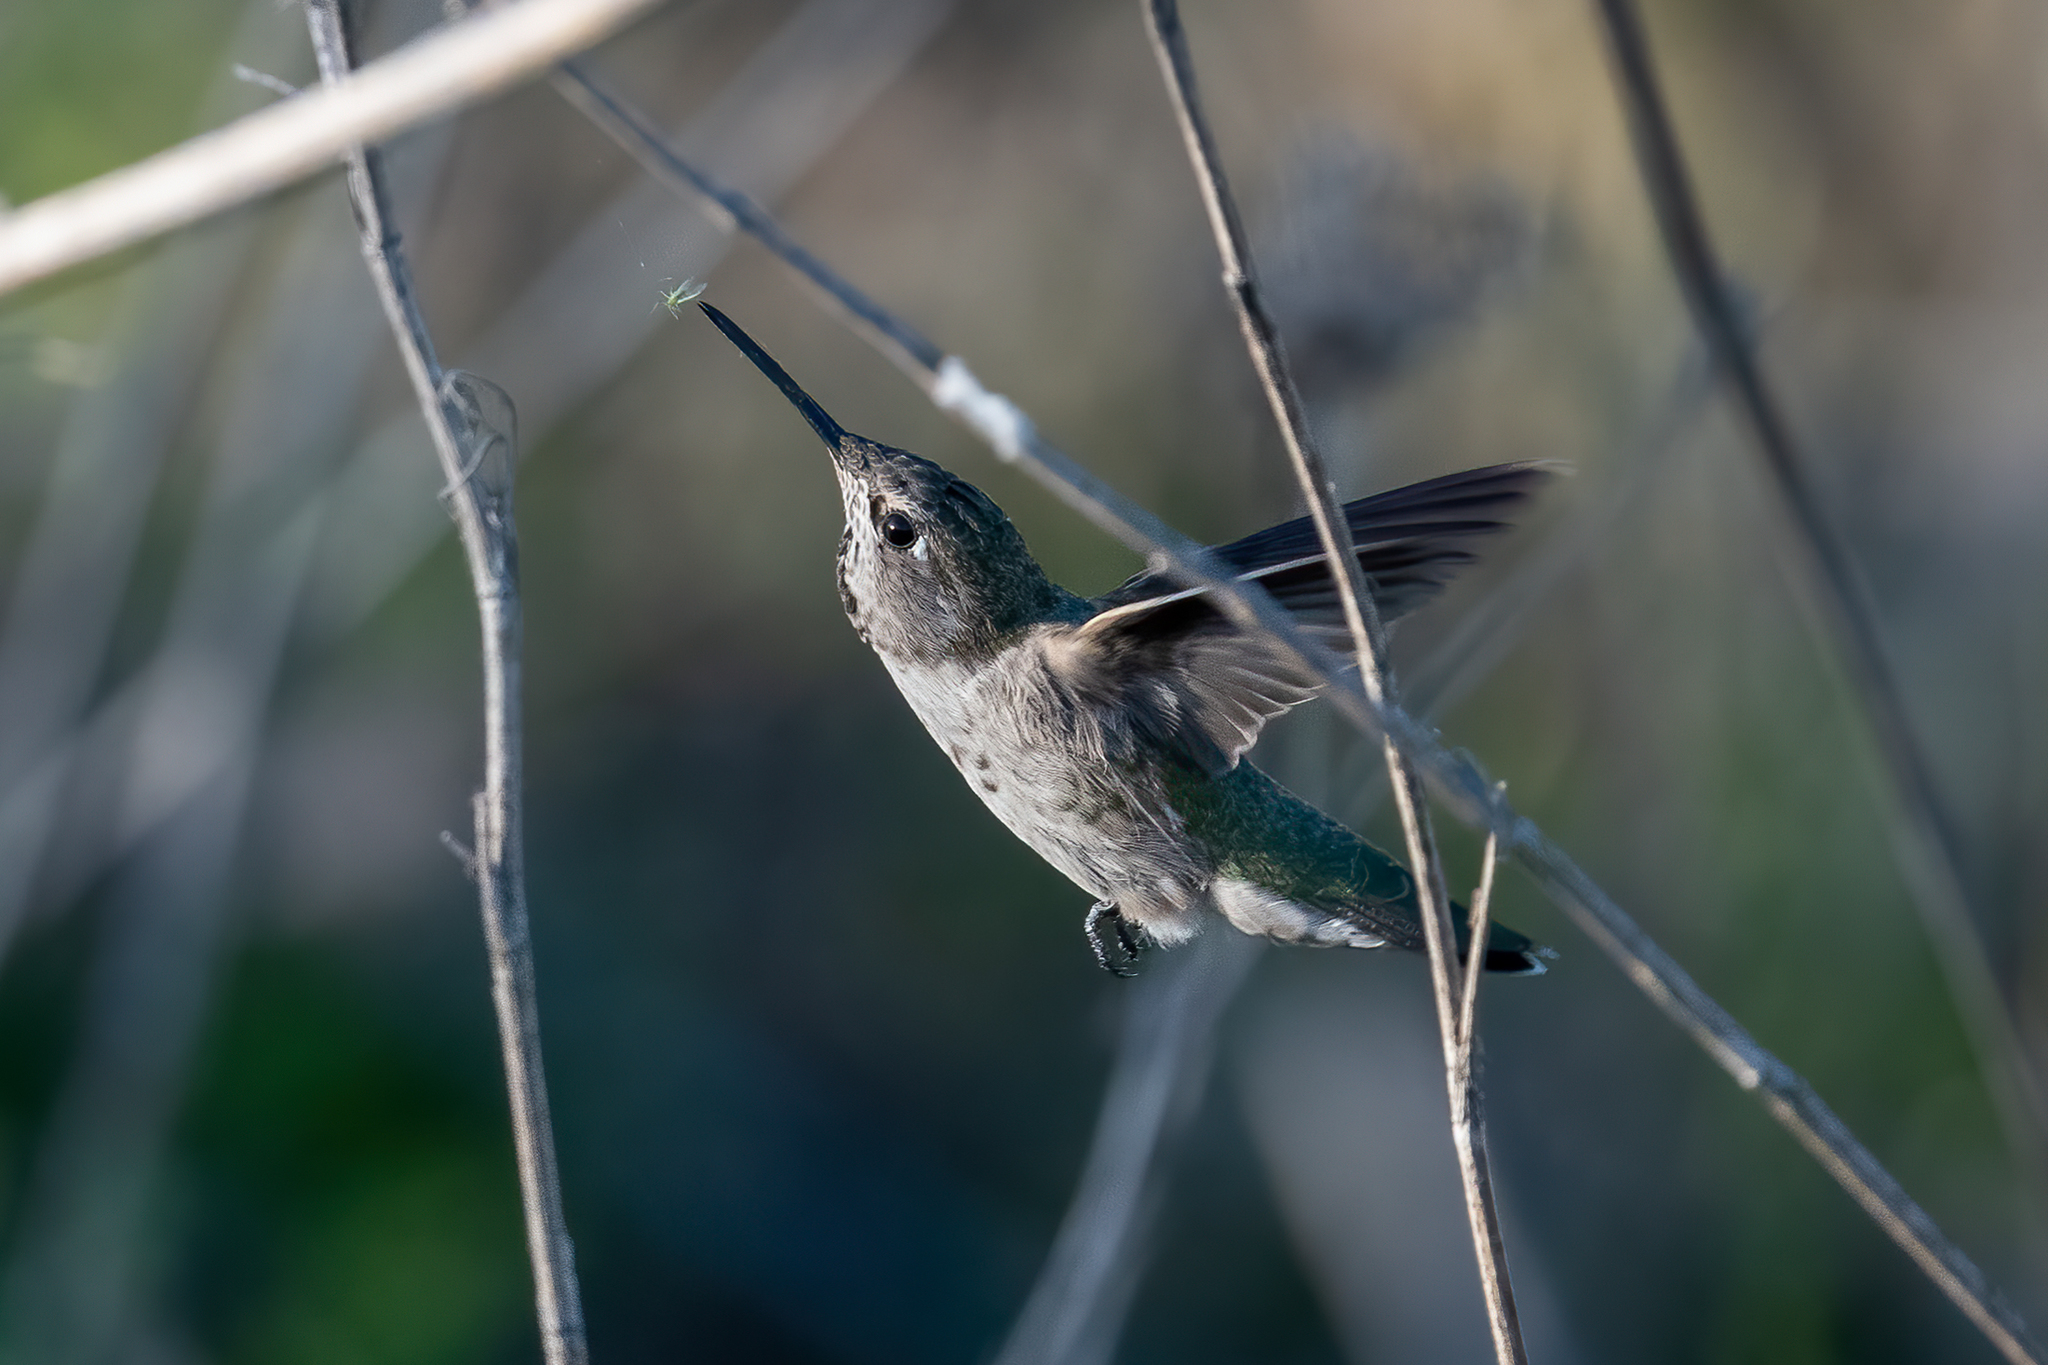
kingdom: Animalia
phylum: Chordata
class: Aves
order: Apodiformes
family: Trochilidae
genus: Calypte
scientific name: Calypte anna
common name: Anna's hummingbird
